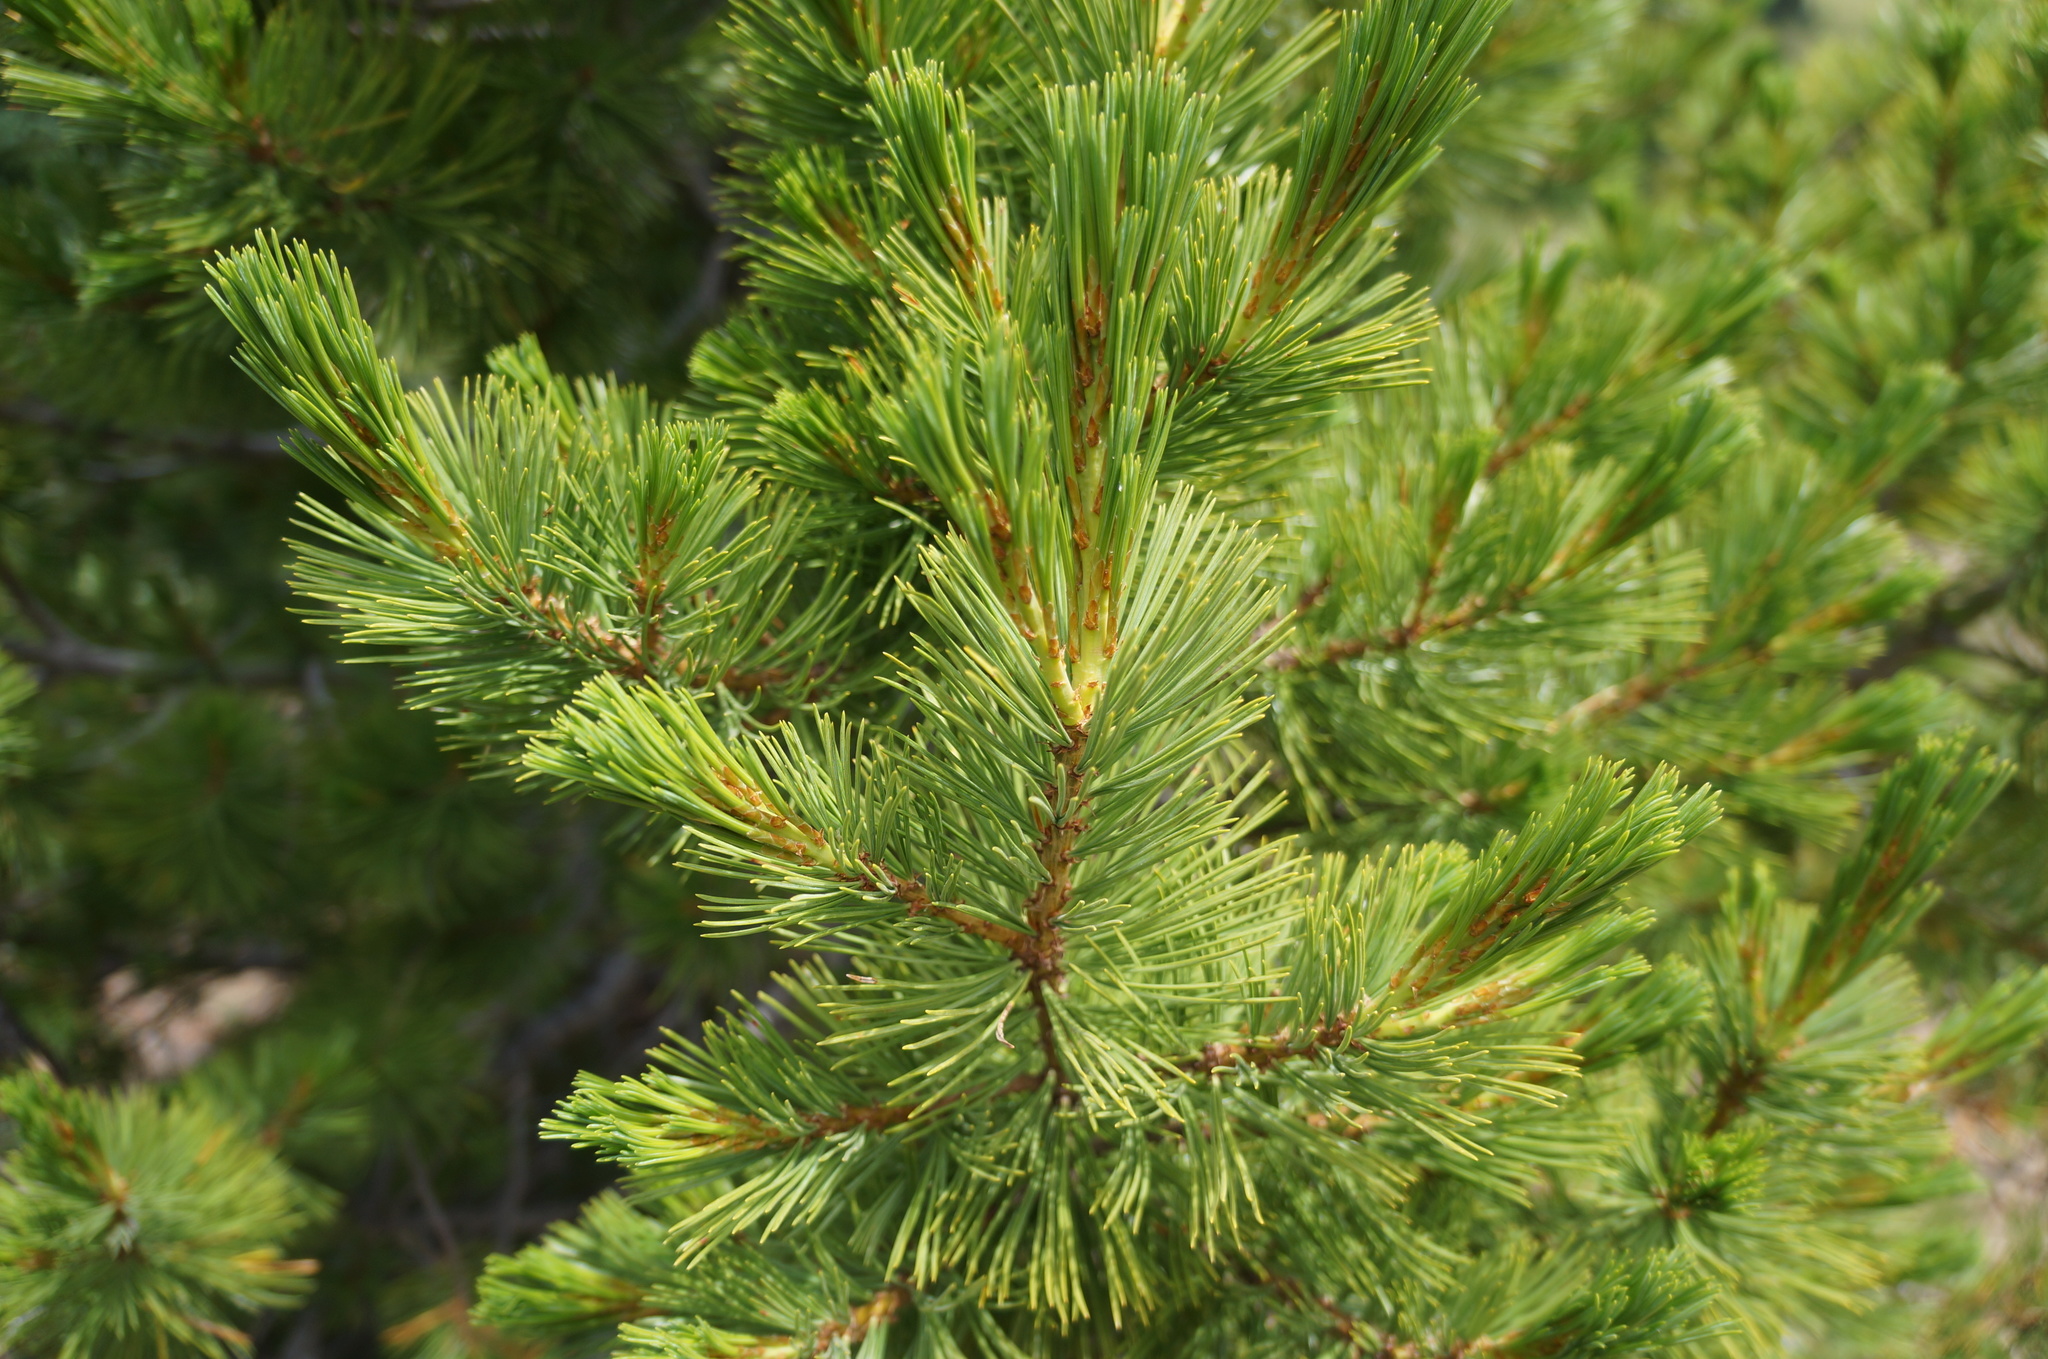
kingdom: Plantae
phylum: Tracheophyta
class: Pinopsida
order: Pinales
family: Pinaceae
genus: Pinus
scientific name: Pinus albicaulis
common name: Whitebark pine
